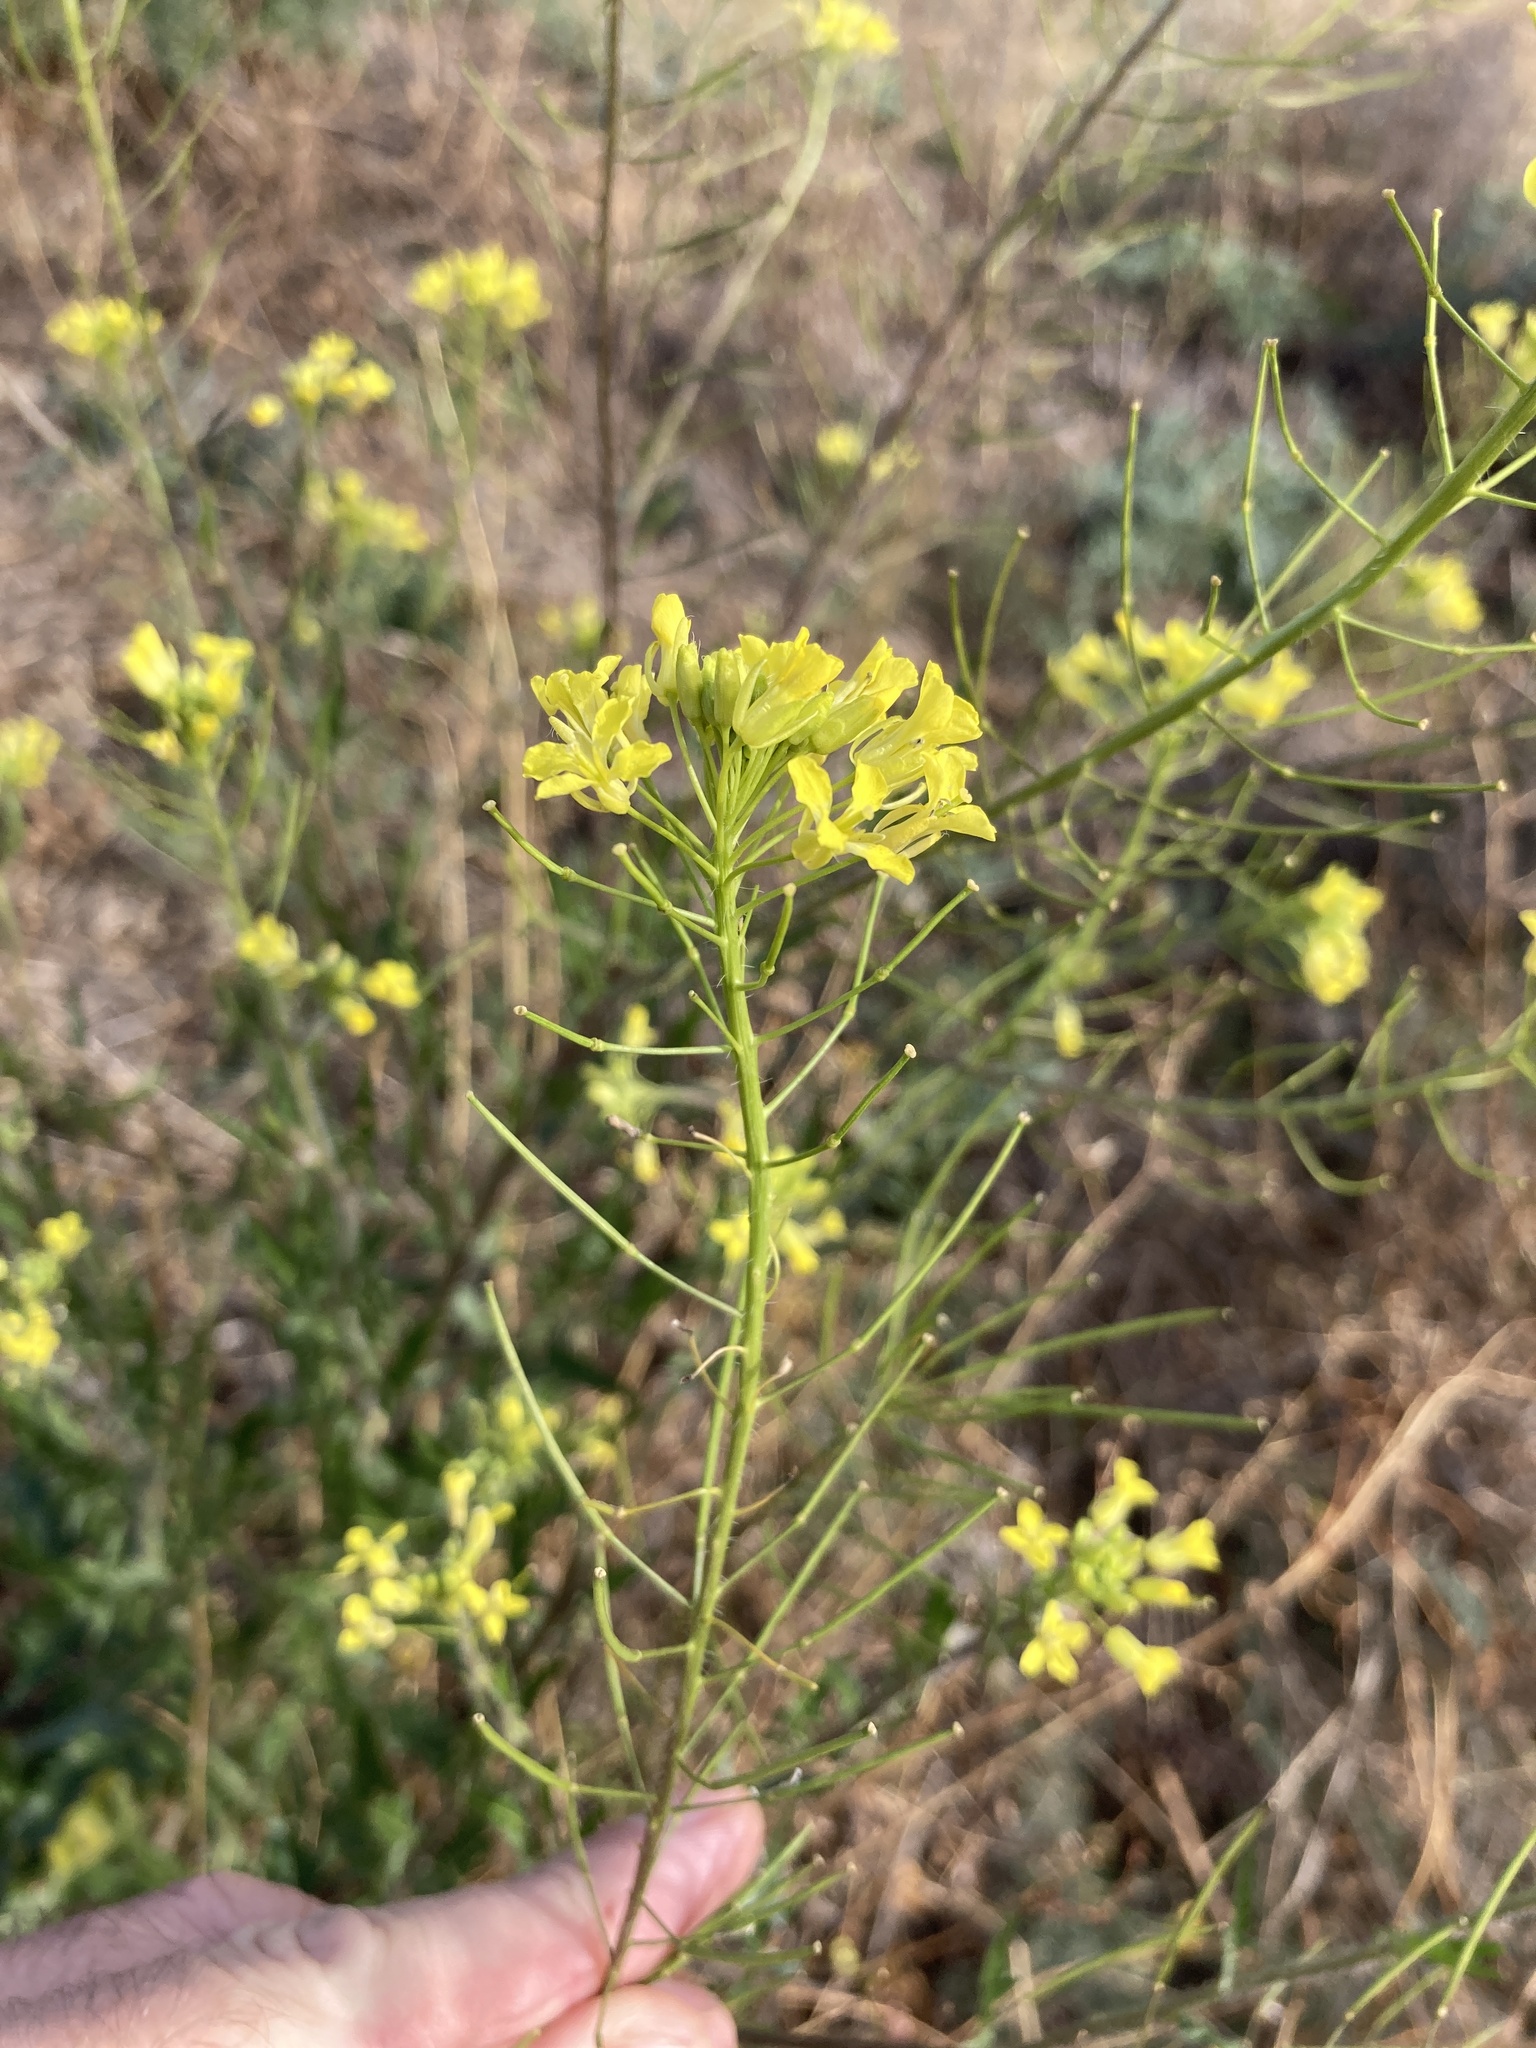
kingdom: Plantae
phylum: Tracheophyta
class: Magnoliopsida
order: Brassicales
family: Brassicaceae
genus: Sisymbrium
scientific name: Sisymbrium loeselii
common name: False london-rocket
